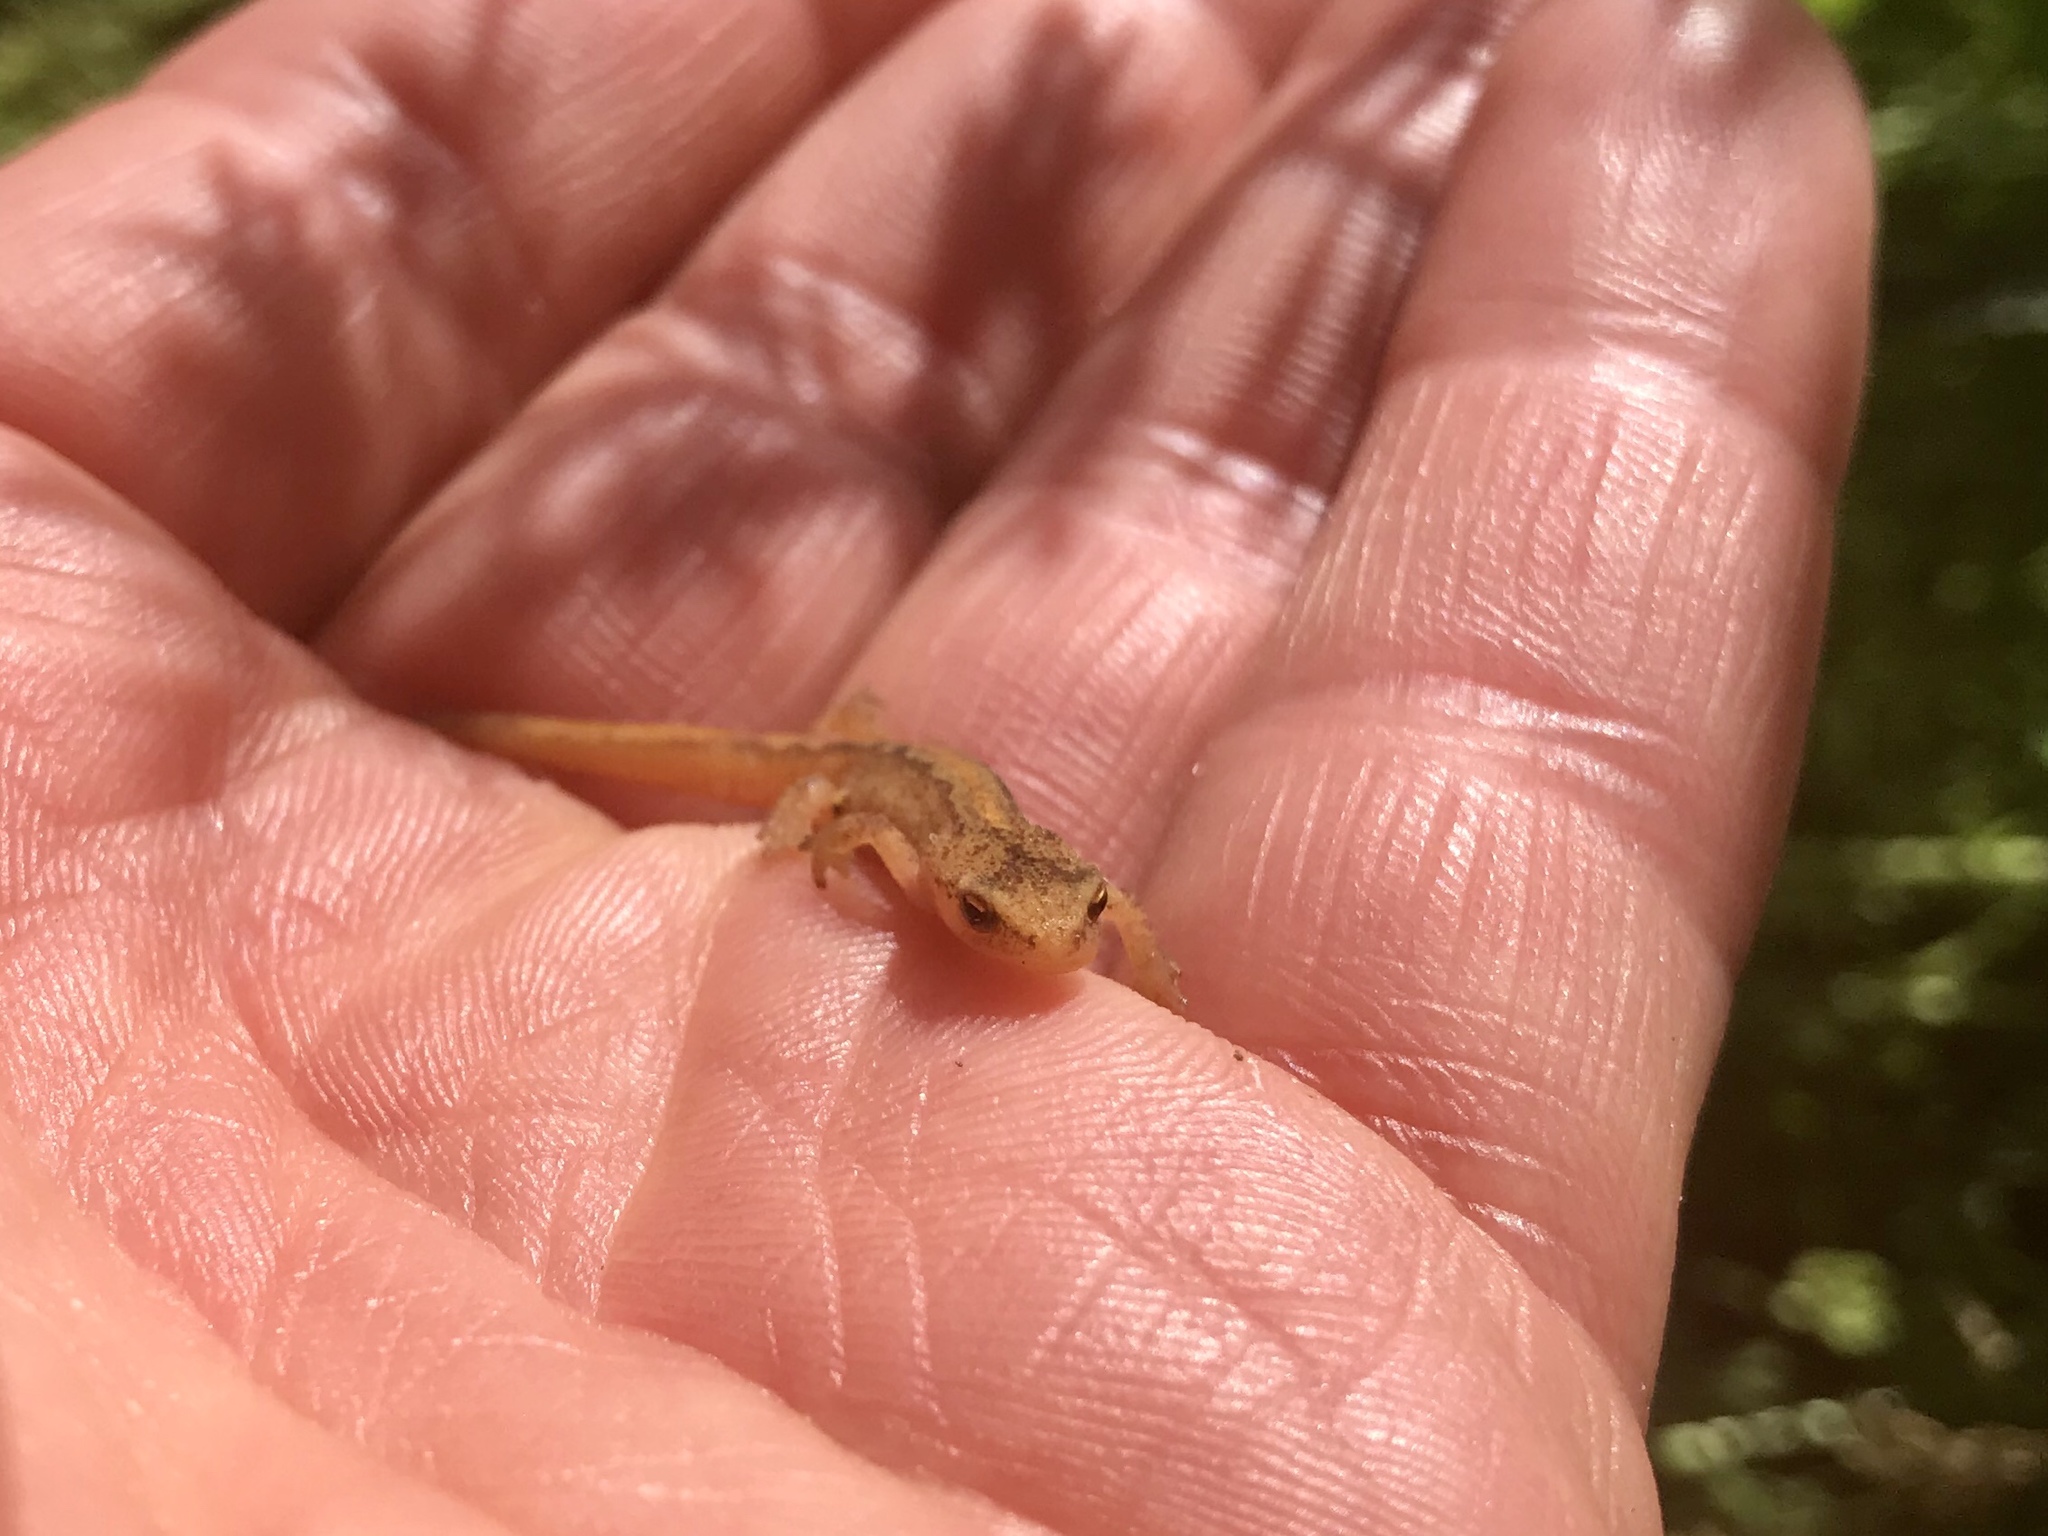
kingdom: Animalia
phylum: Chordata
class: Amphibia
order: Caudata
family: Salamandridae
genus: Lissotriton
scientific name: Lissotriton vulgaris
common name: Smooth newt
